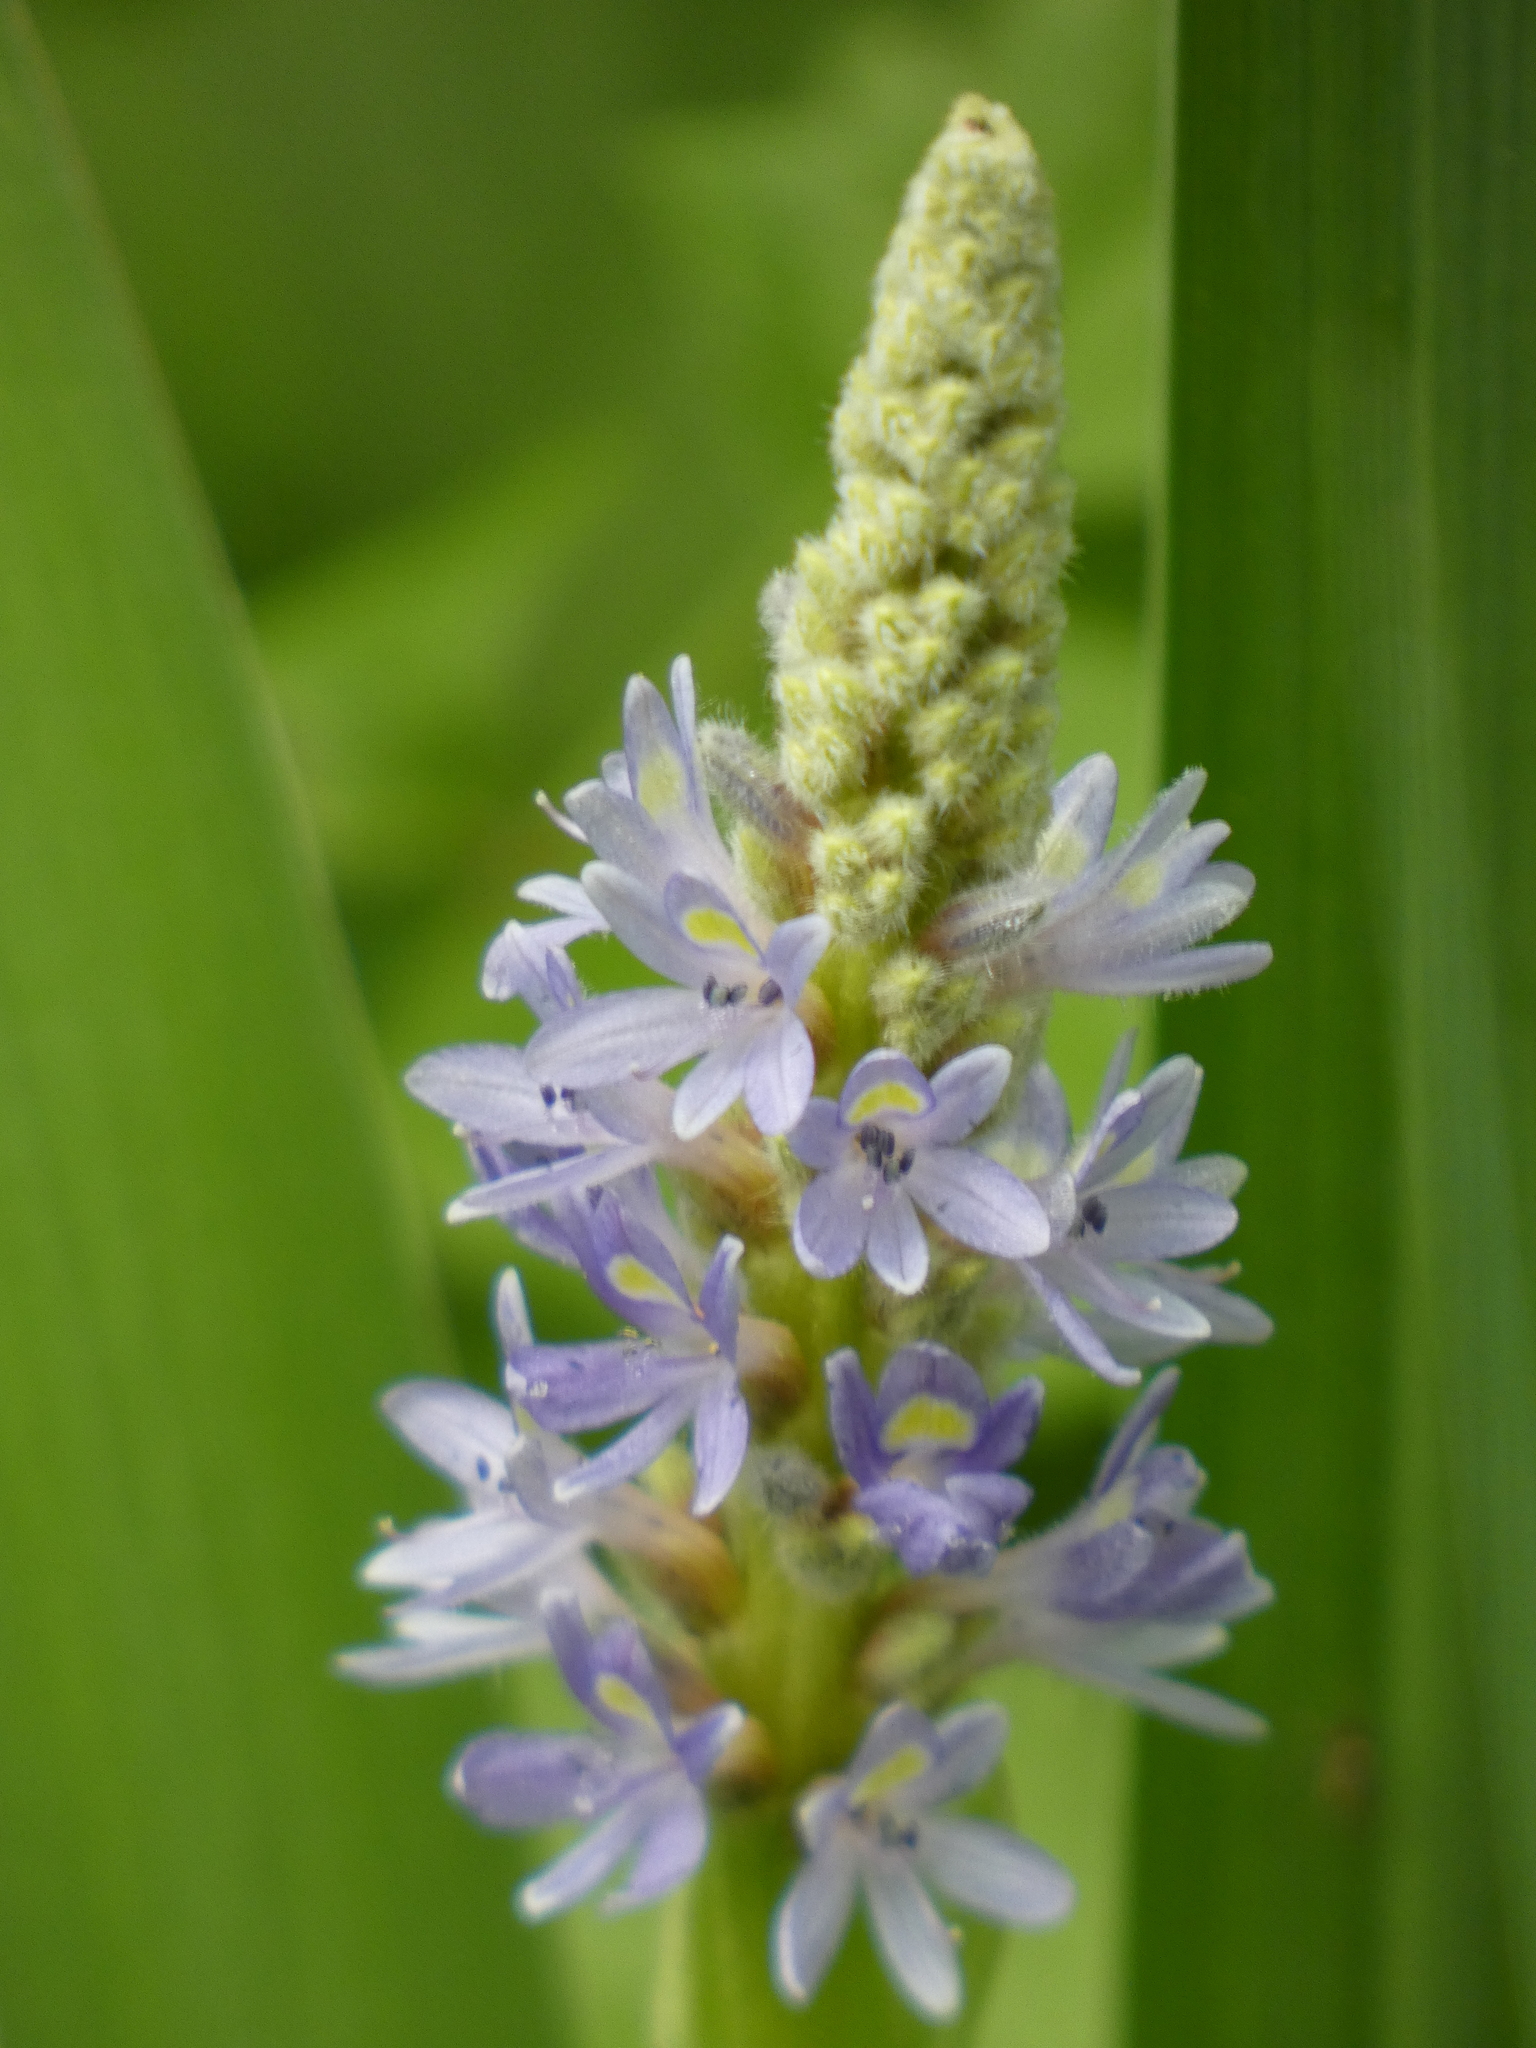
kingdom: Plantae
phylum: Tracheophyta
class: Liliopsida
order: Commelinales
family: Pontederiaceae
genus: Pontederia
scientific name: Pontederia cordata
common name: Pickerelweed
